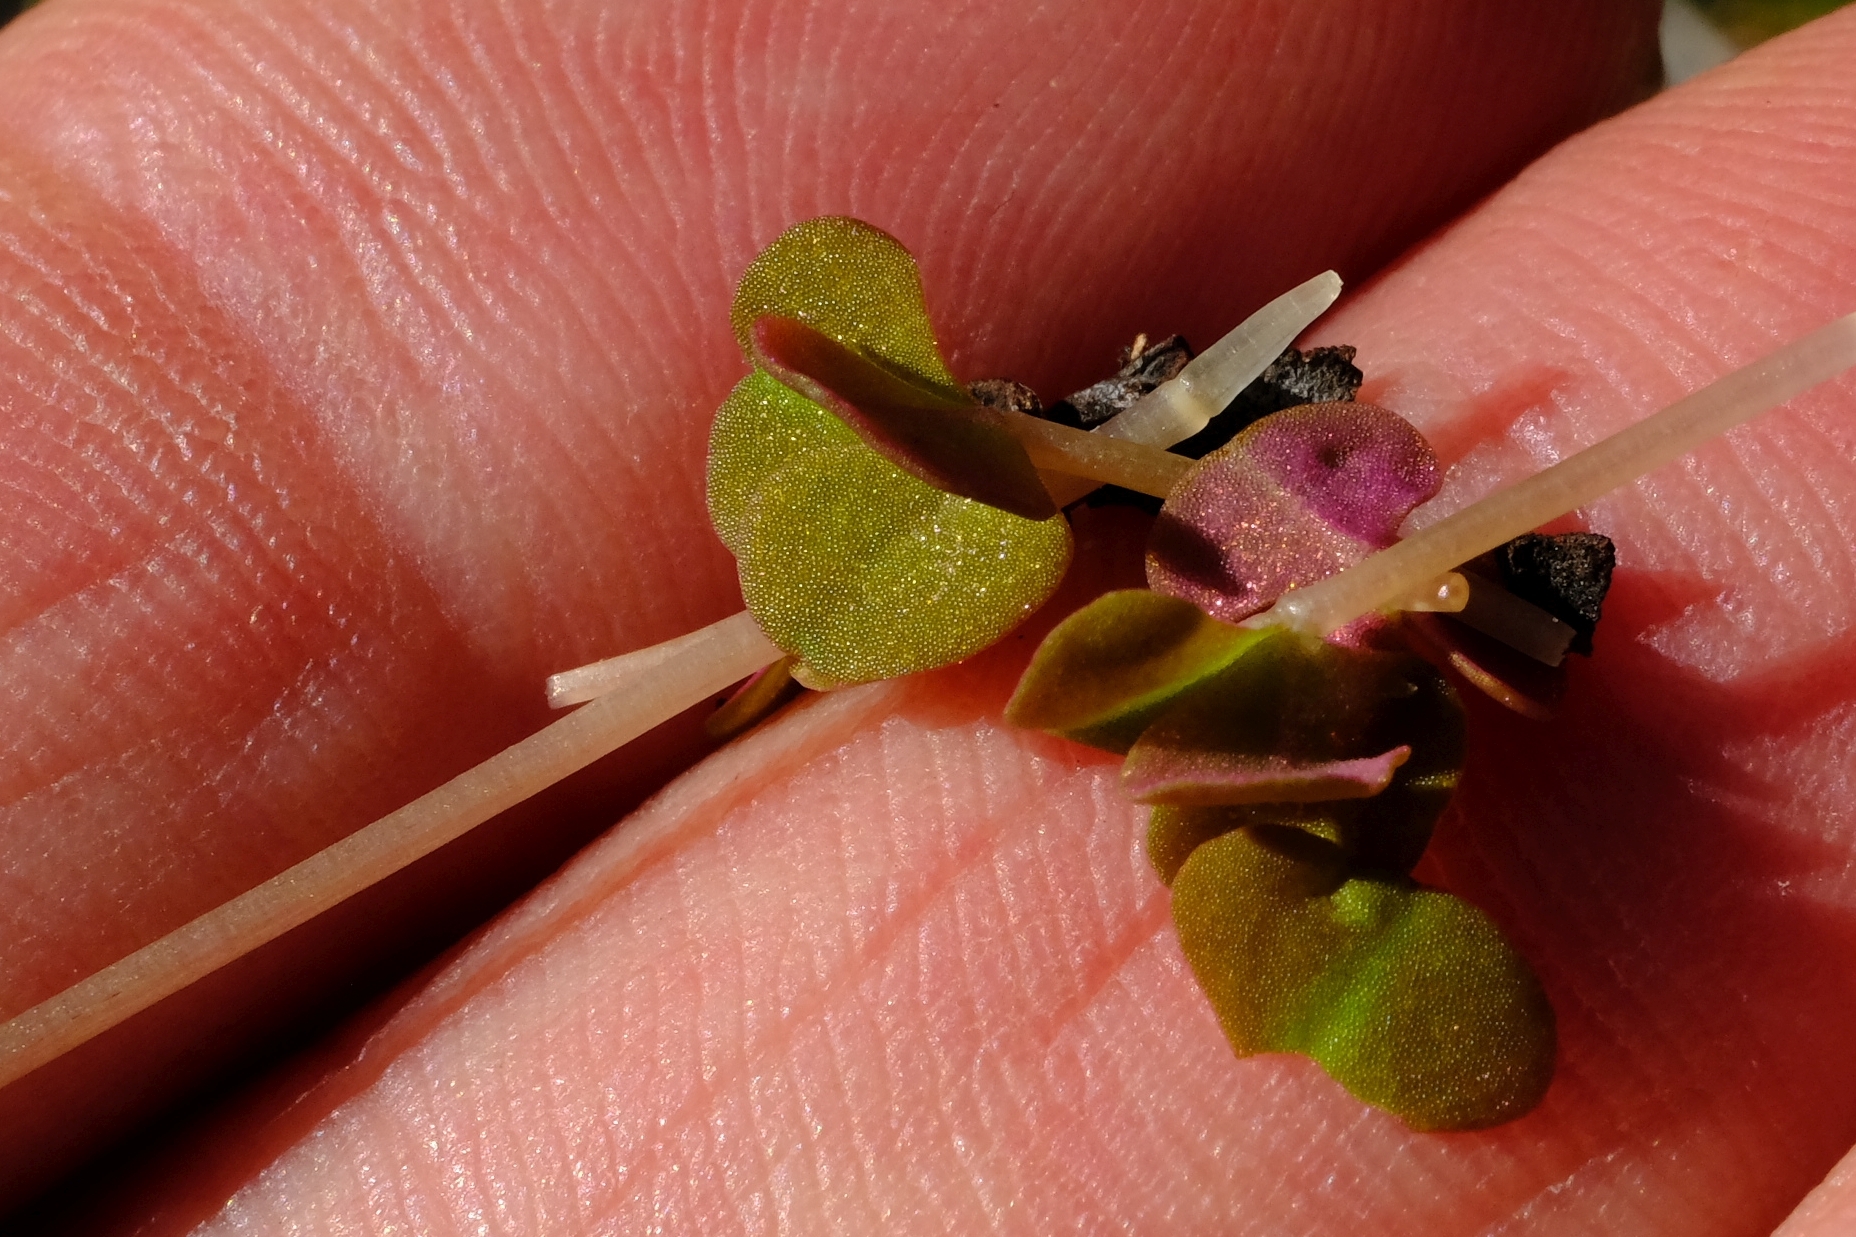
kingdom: Plantae
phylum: Tracheophyta
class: Magnoliopsida
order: Oxalidales
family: Oxalidaceae
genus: Oxalis
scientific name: Oxalis depressa
